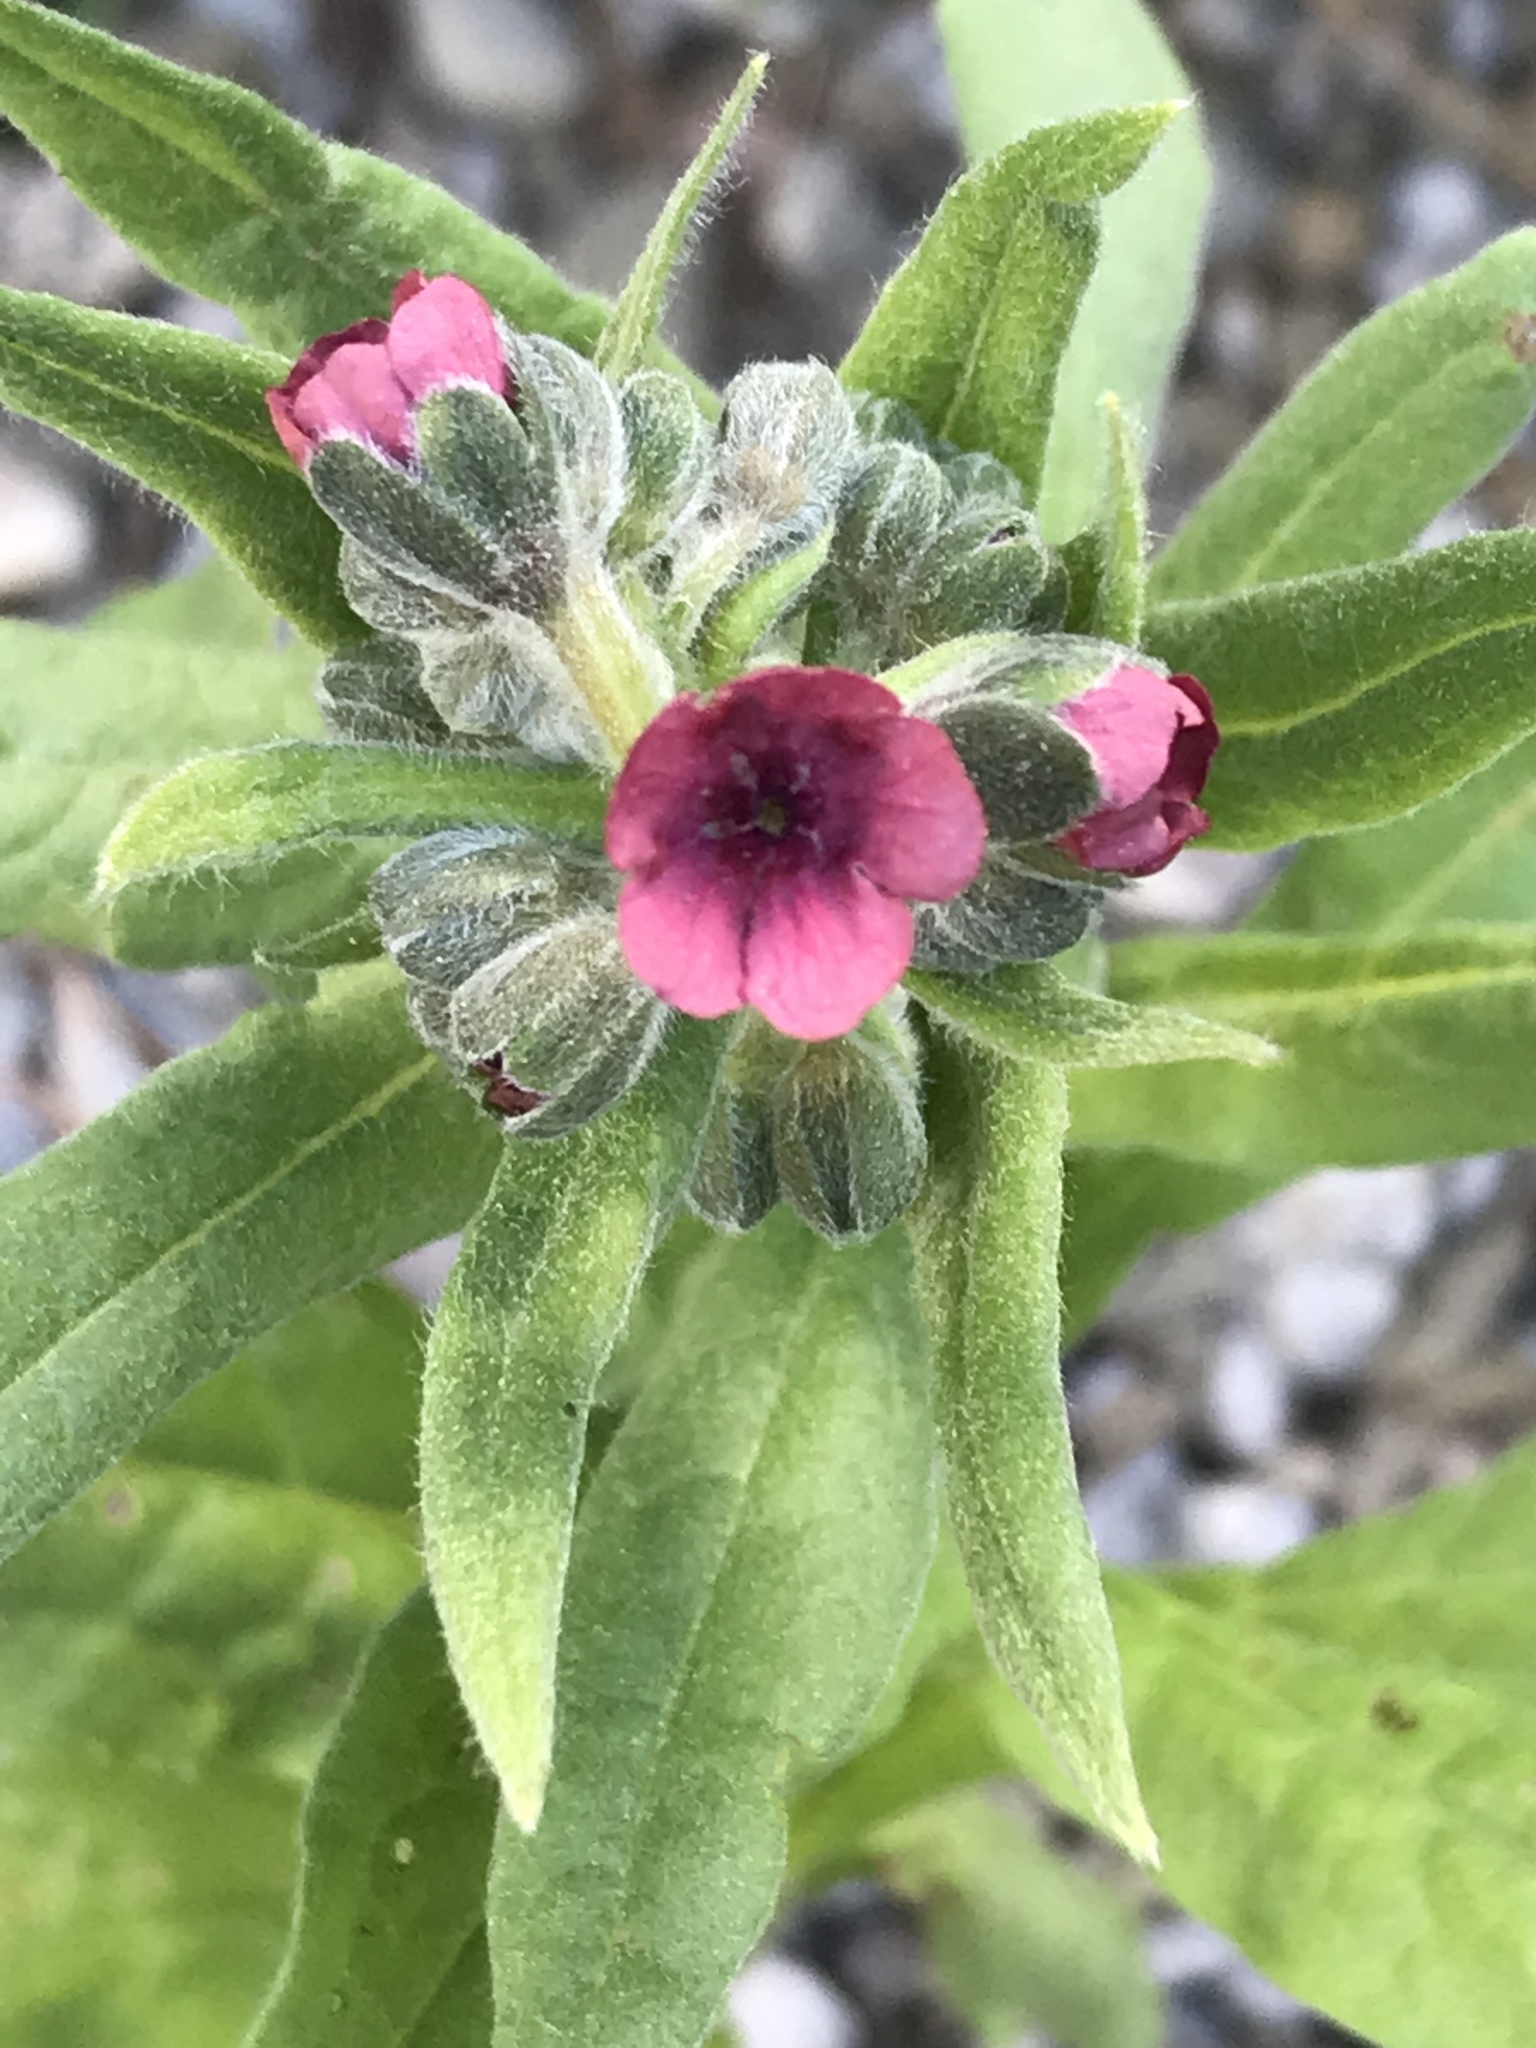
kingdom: Plantae
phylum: Tracheophyta
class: Magnoliopsida
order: Boraginales
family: Boraginaceae
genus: Cynoglossum
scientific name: Cynoglossum officinale
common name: Hound's-tongue
